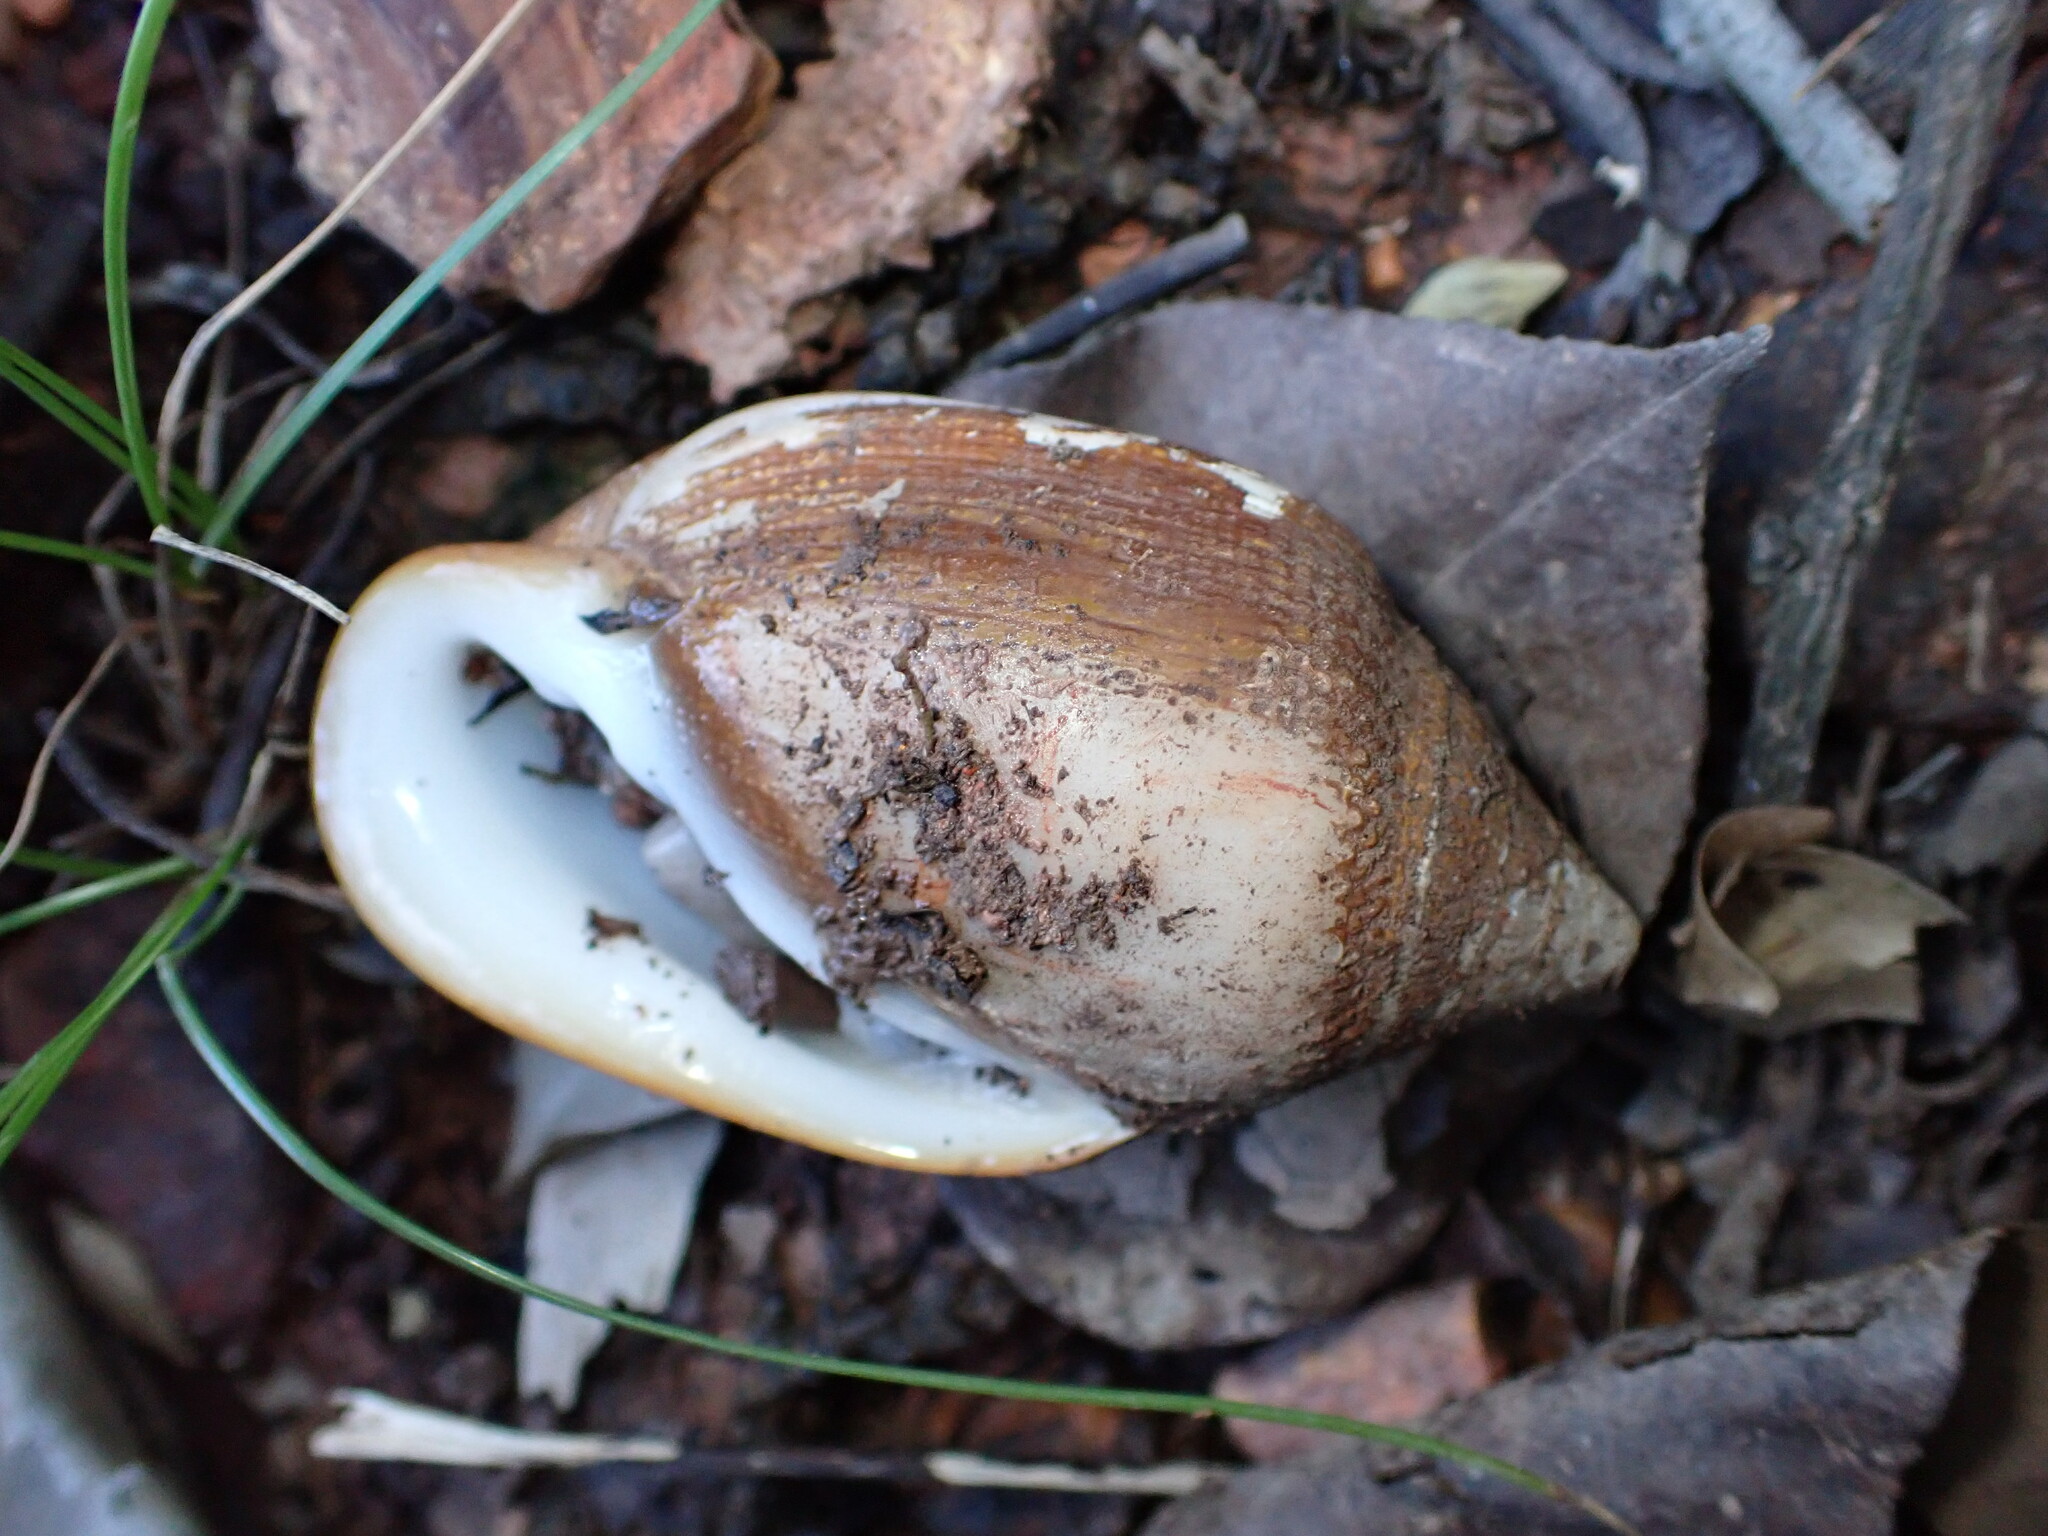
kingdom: Animalia
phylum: Mollusca
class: Gastropoda
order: Ellobiida
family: Ellobiidae
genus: Ellobium
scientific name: Ellobium aurismidae
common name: Midas ear cassidula
